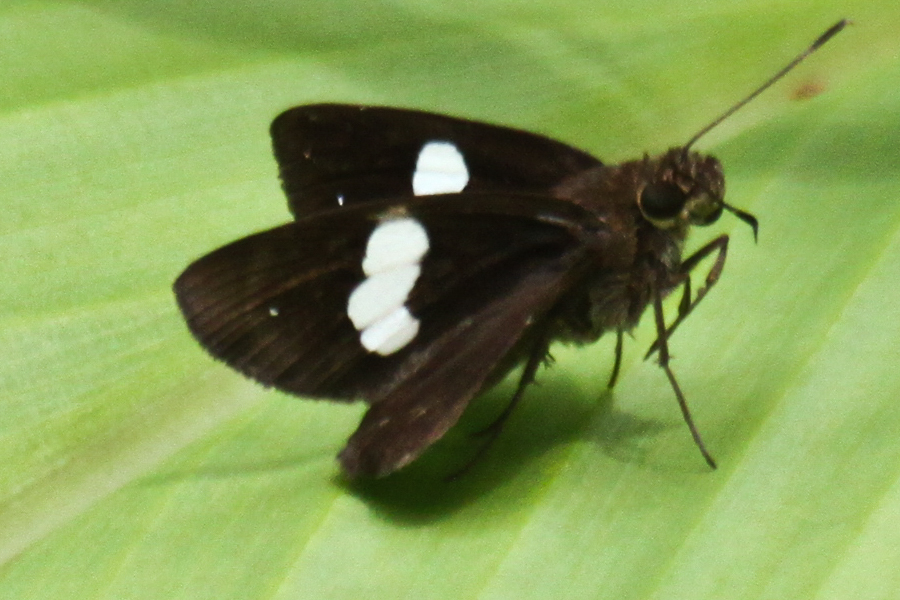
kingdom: Animalia
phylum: Arthropoda
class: Insecta
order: Lepidoptera
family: Hesperiidae
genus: Notocrypta
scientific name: Notocrypta paralysos
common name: Common banded demon
